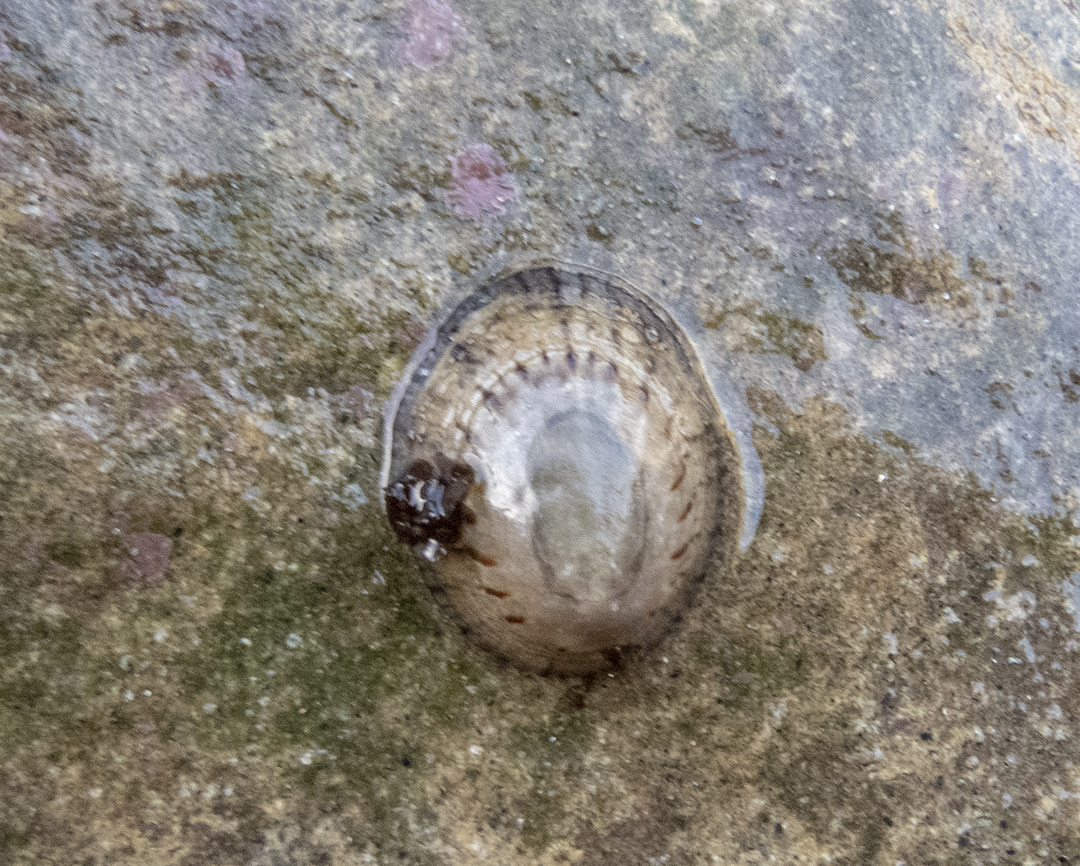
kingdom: Animalia
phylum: Mollusca
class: Gastropoda
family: Nacellidae
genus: Cellana
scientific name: Cellana radians
